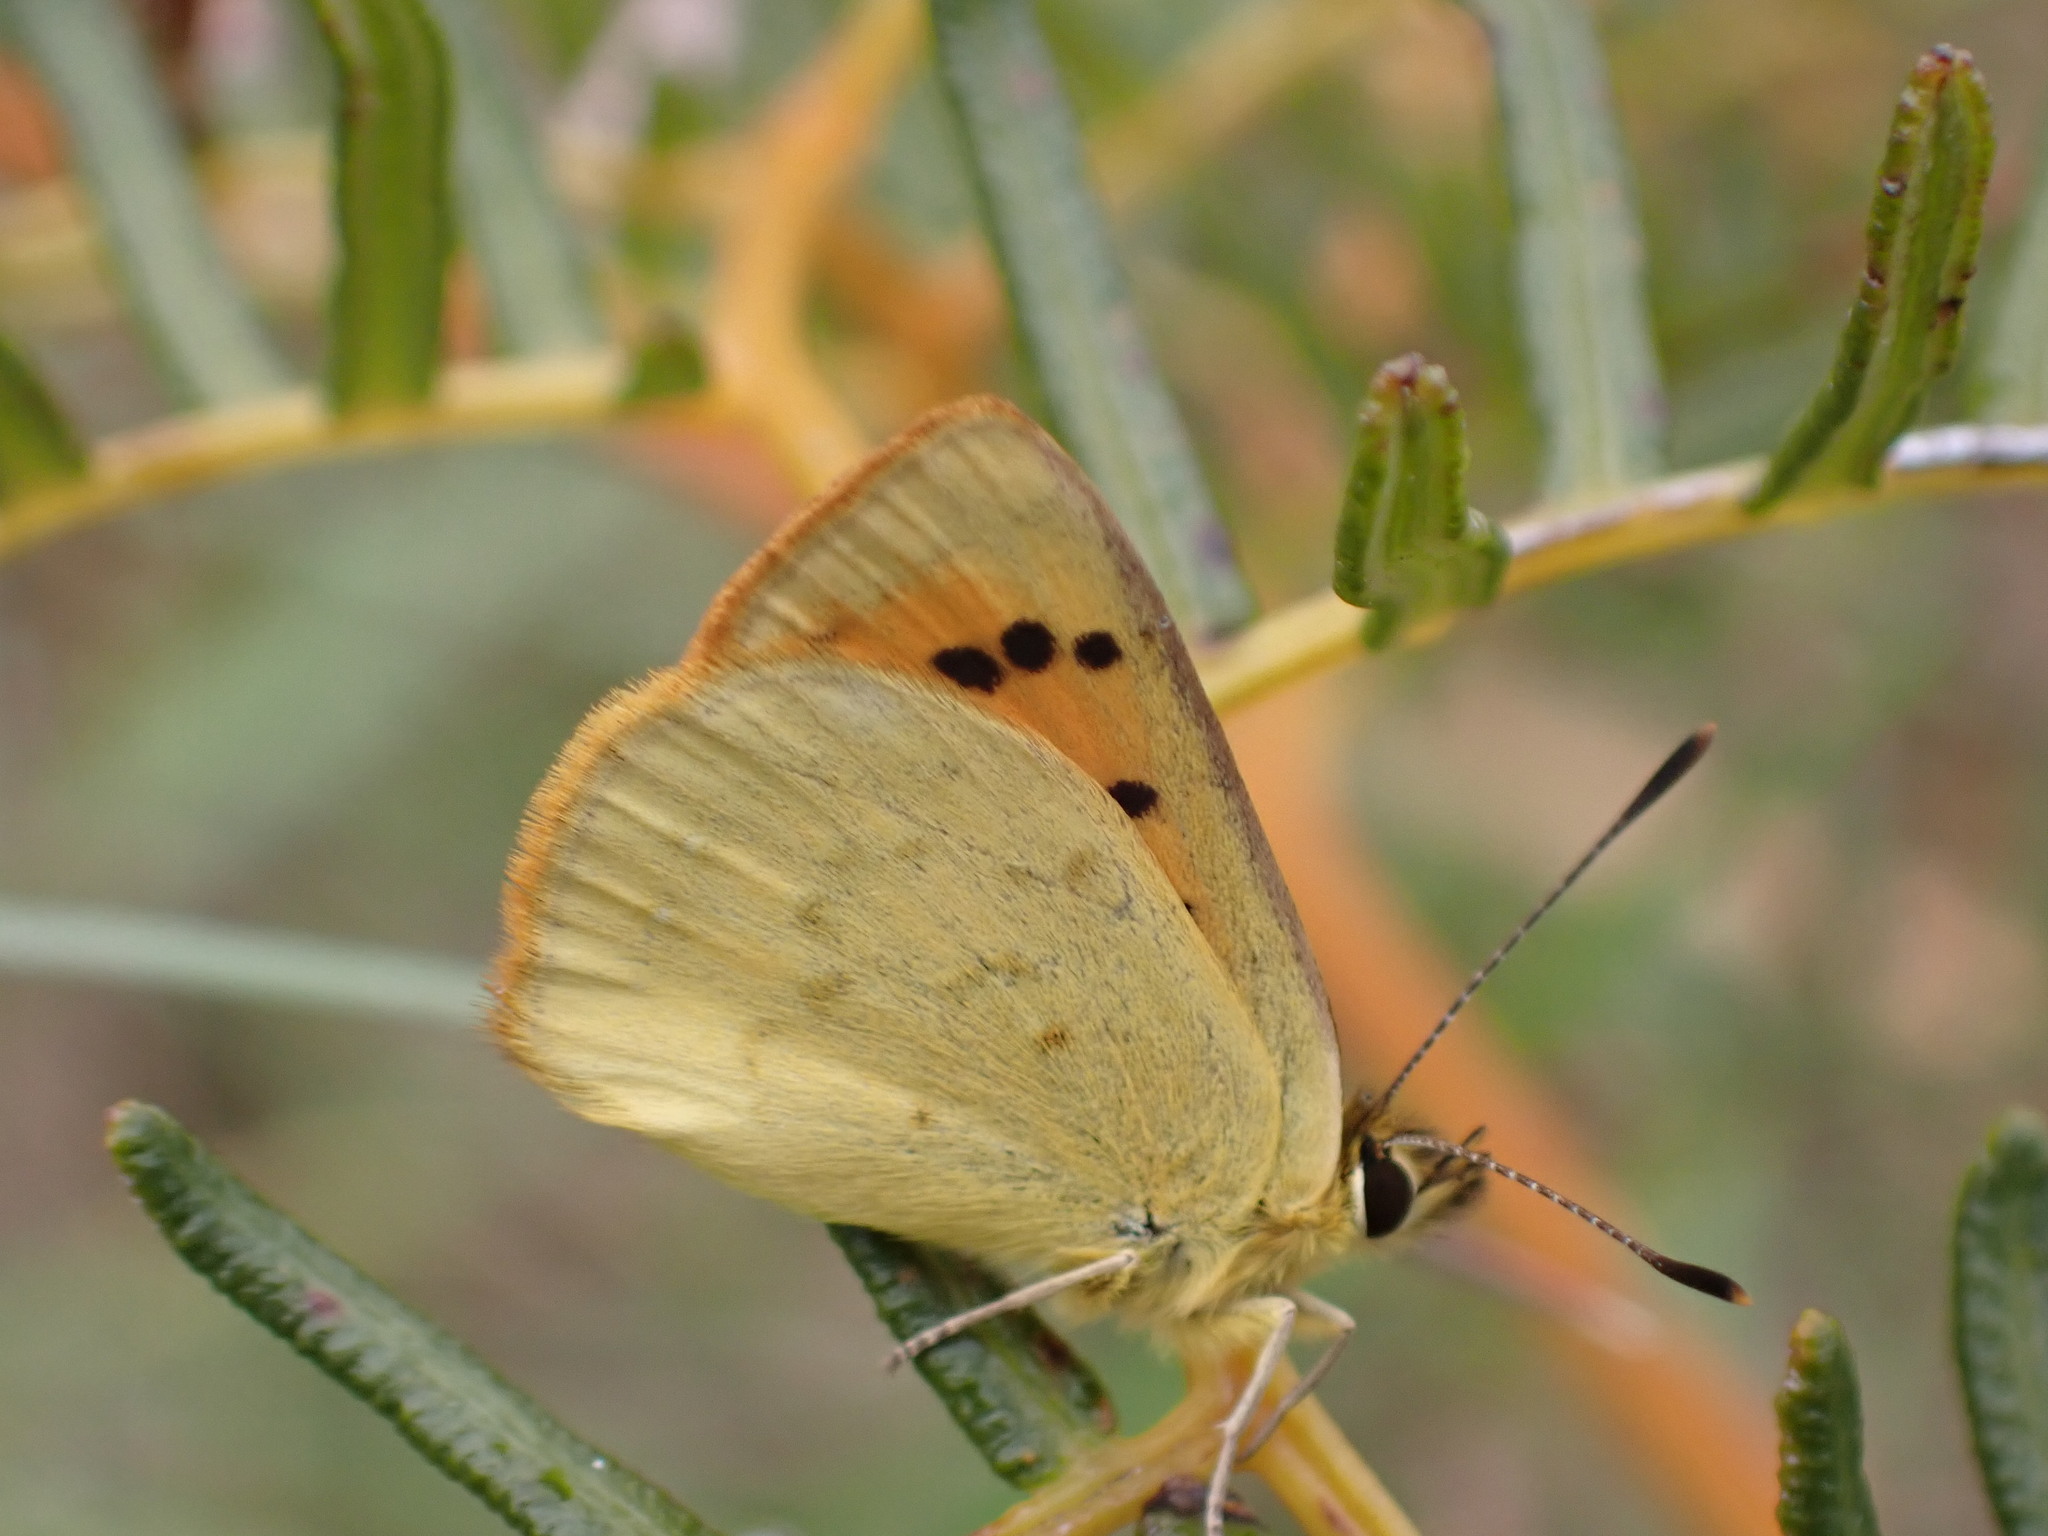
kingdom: Animalia
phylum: Arthropoda
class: Insecta
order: Lepidoptera
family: Lycaenidae
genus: Lycaena
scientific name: Lycaena
